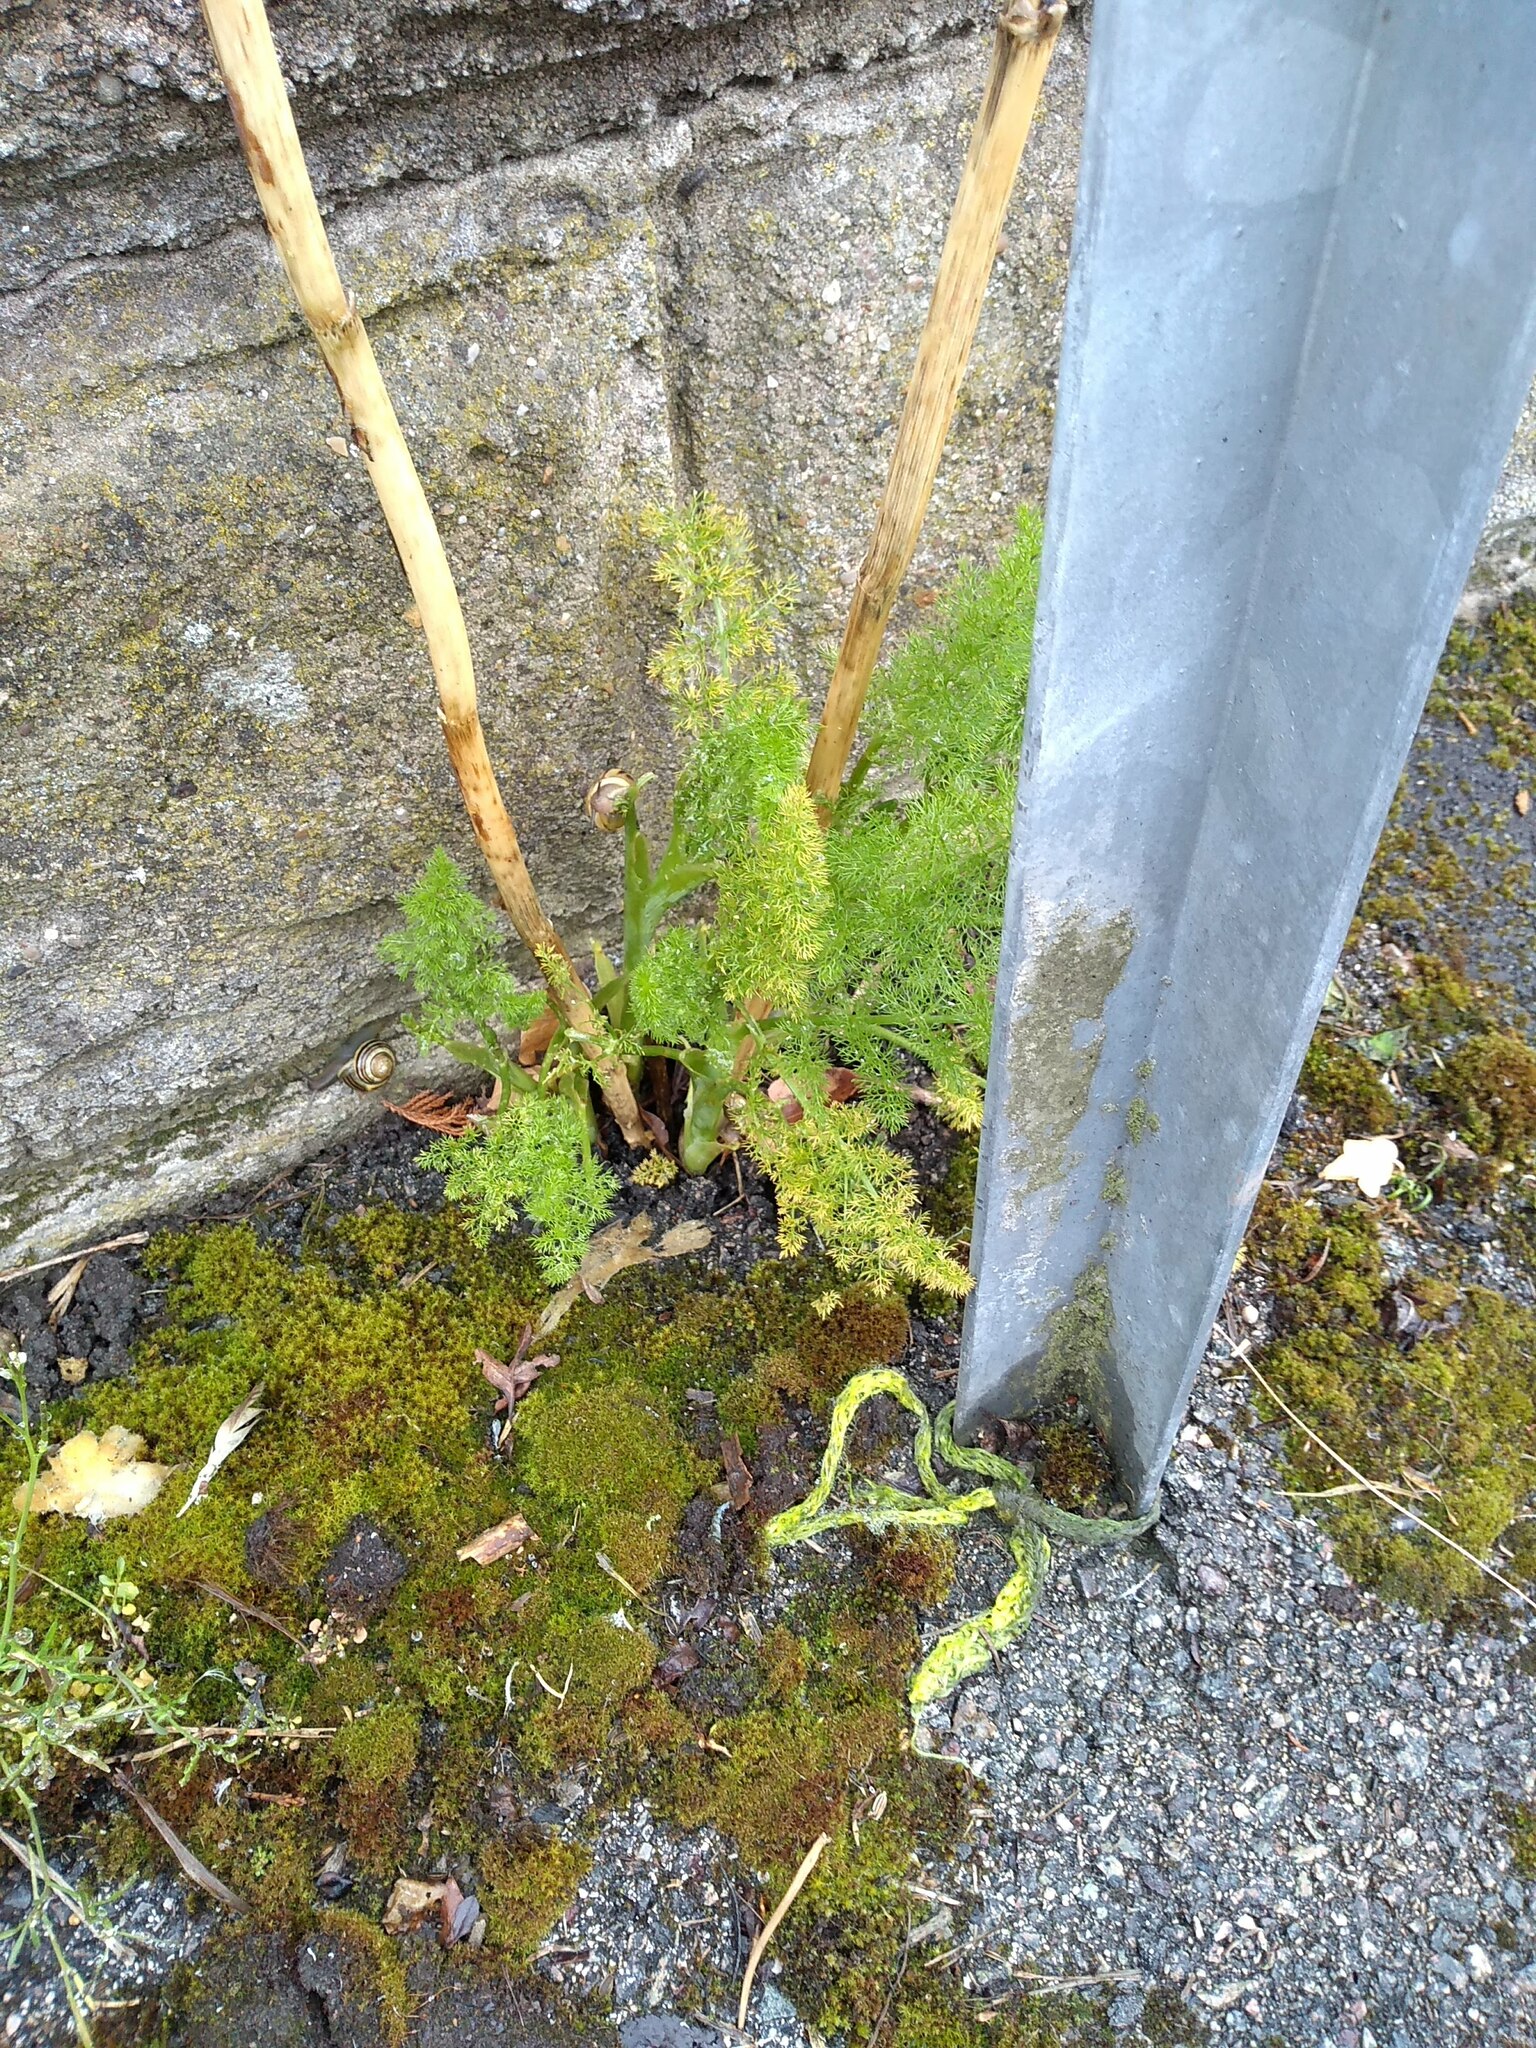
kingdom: Plantae
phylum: Tracheophyta
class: Magnoliopsida
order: Apiales
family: Apiaceae
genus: Foeniculum
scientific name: Foeniculum vulgare
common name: Fennel
